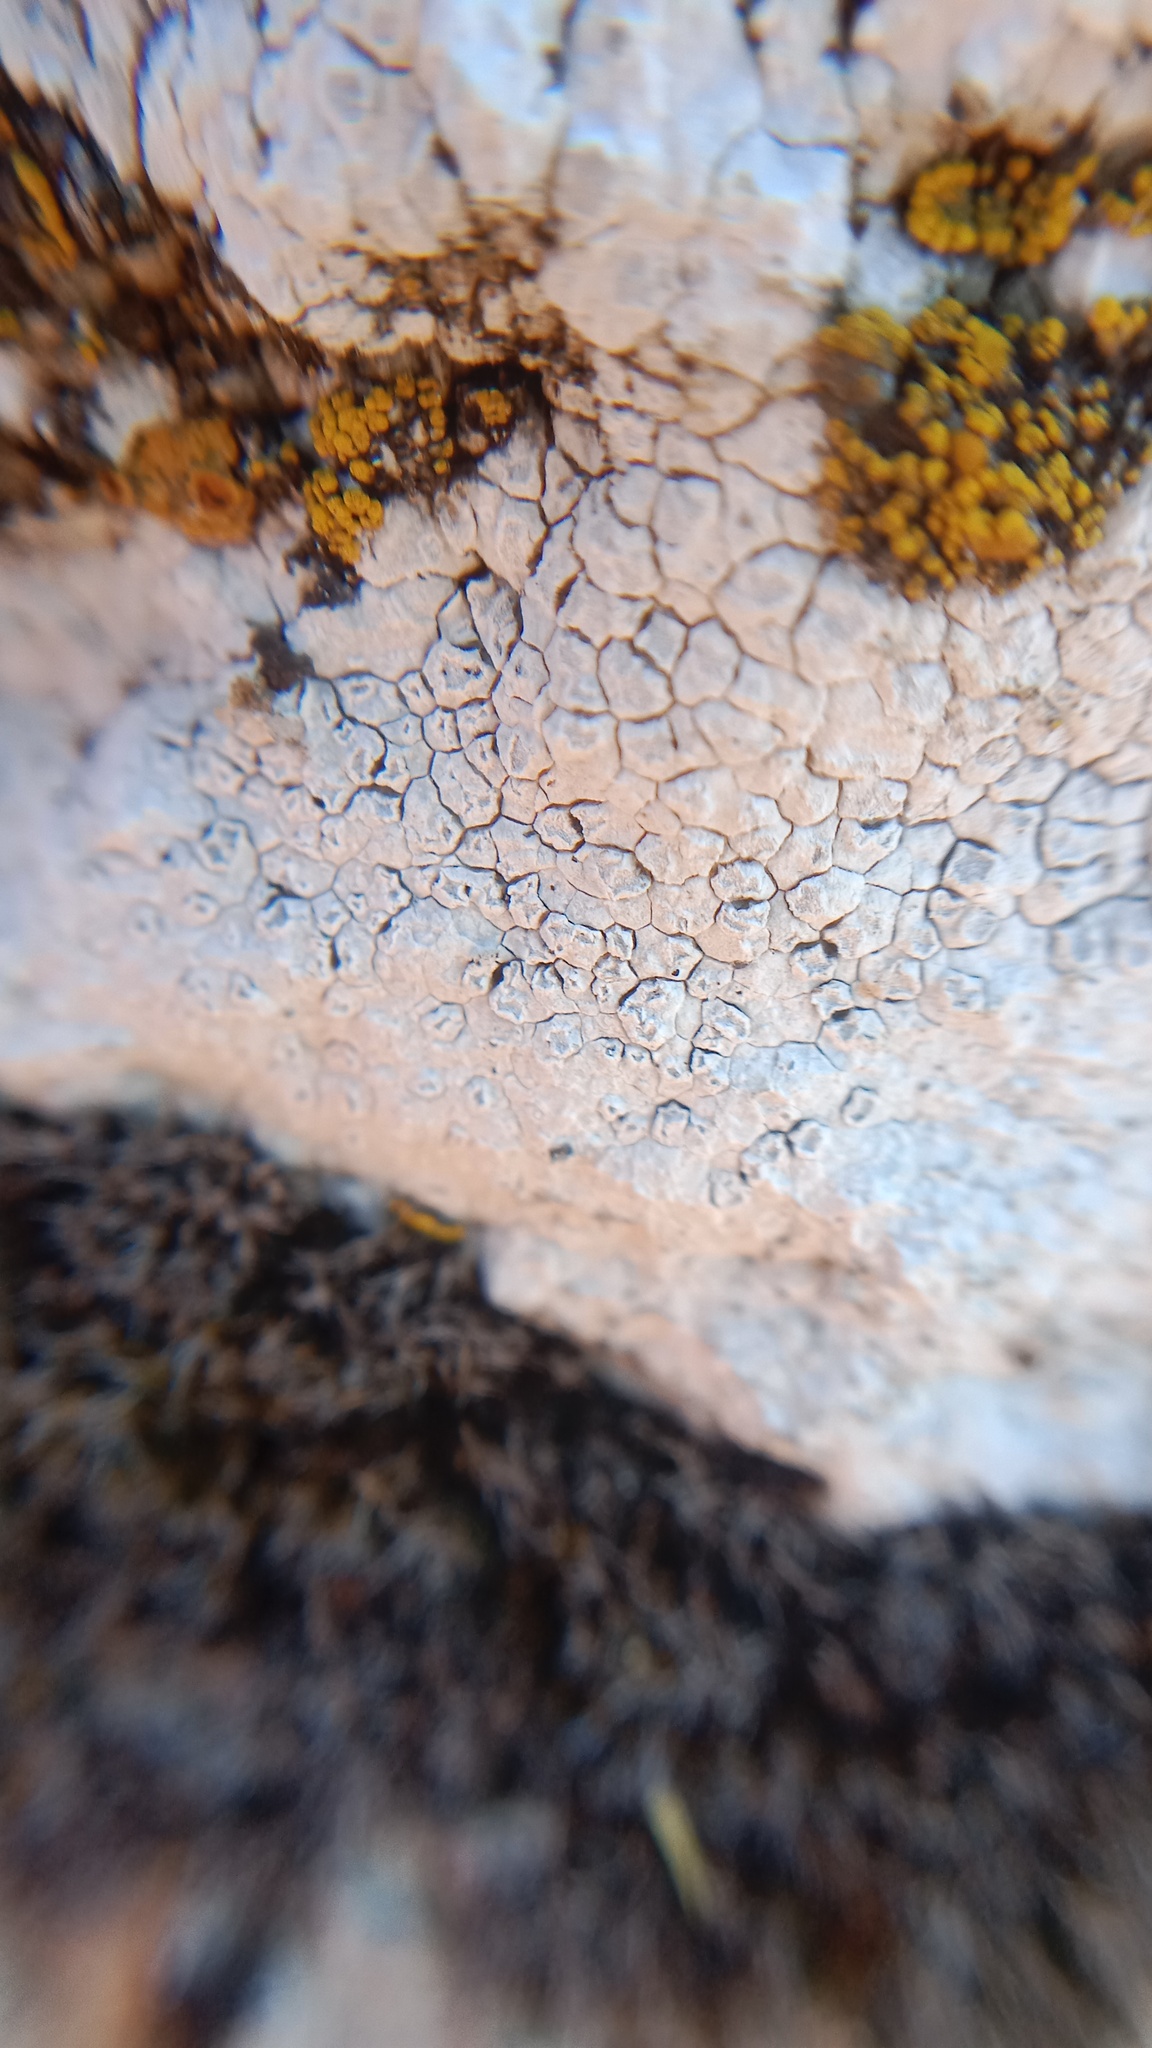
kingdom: Fungi
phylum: Ascomycota
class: Lecanoromycetes
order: Pertusariales
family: Megasporaceae
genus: Circinaria
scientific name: Circinaria calcarea
